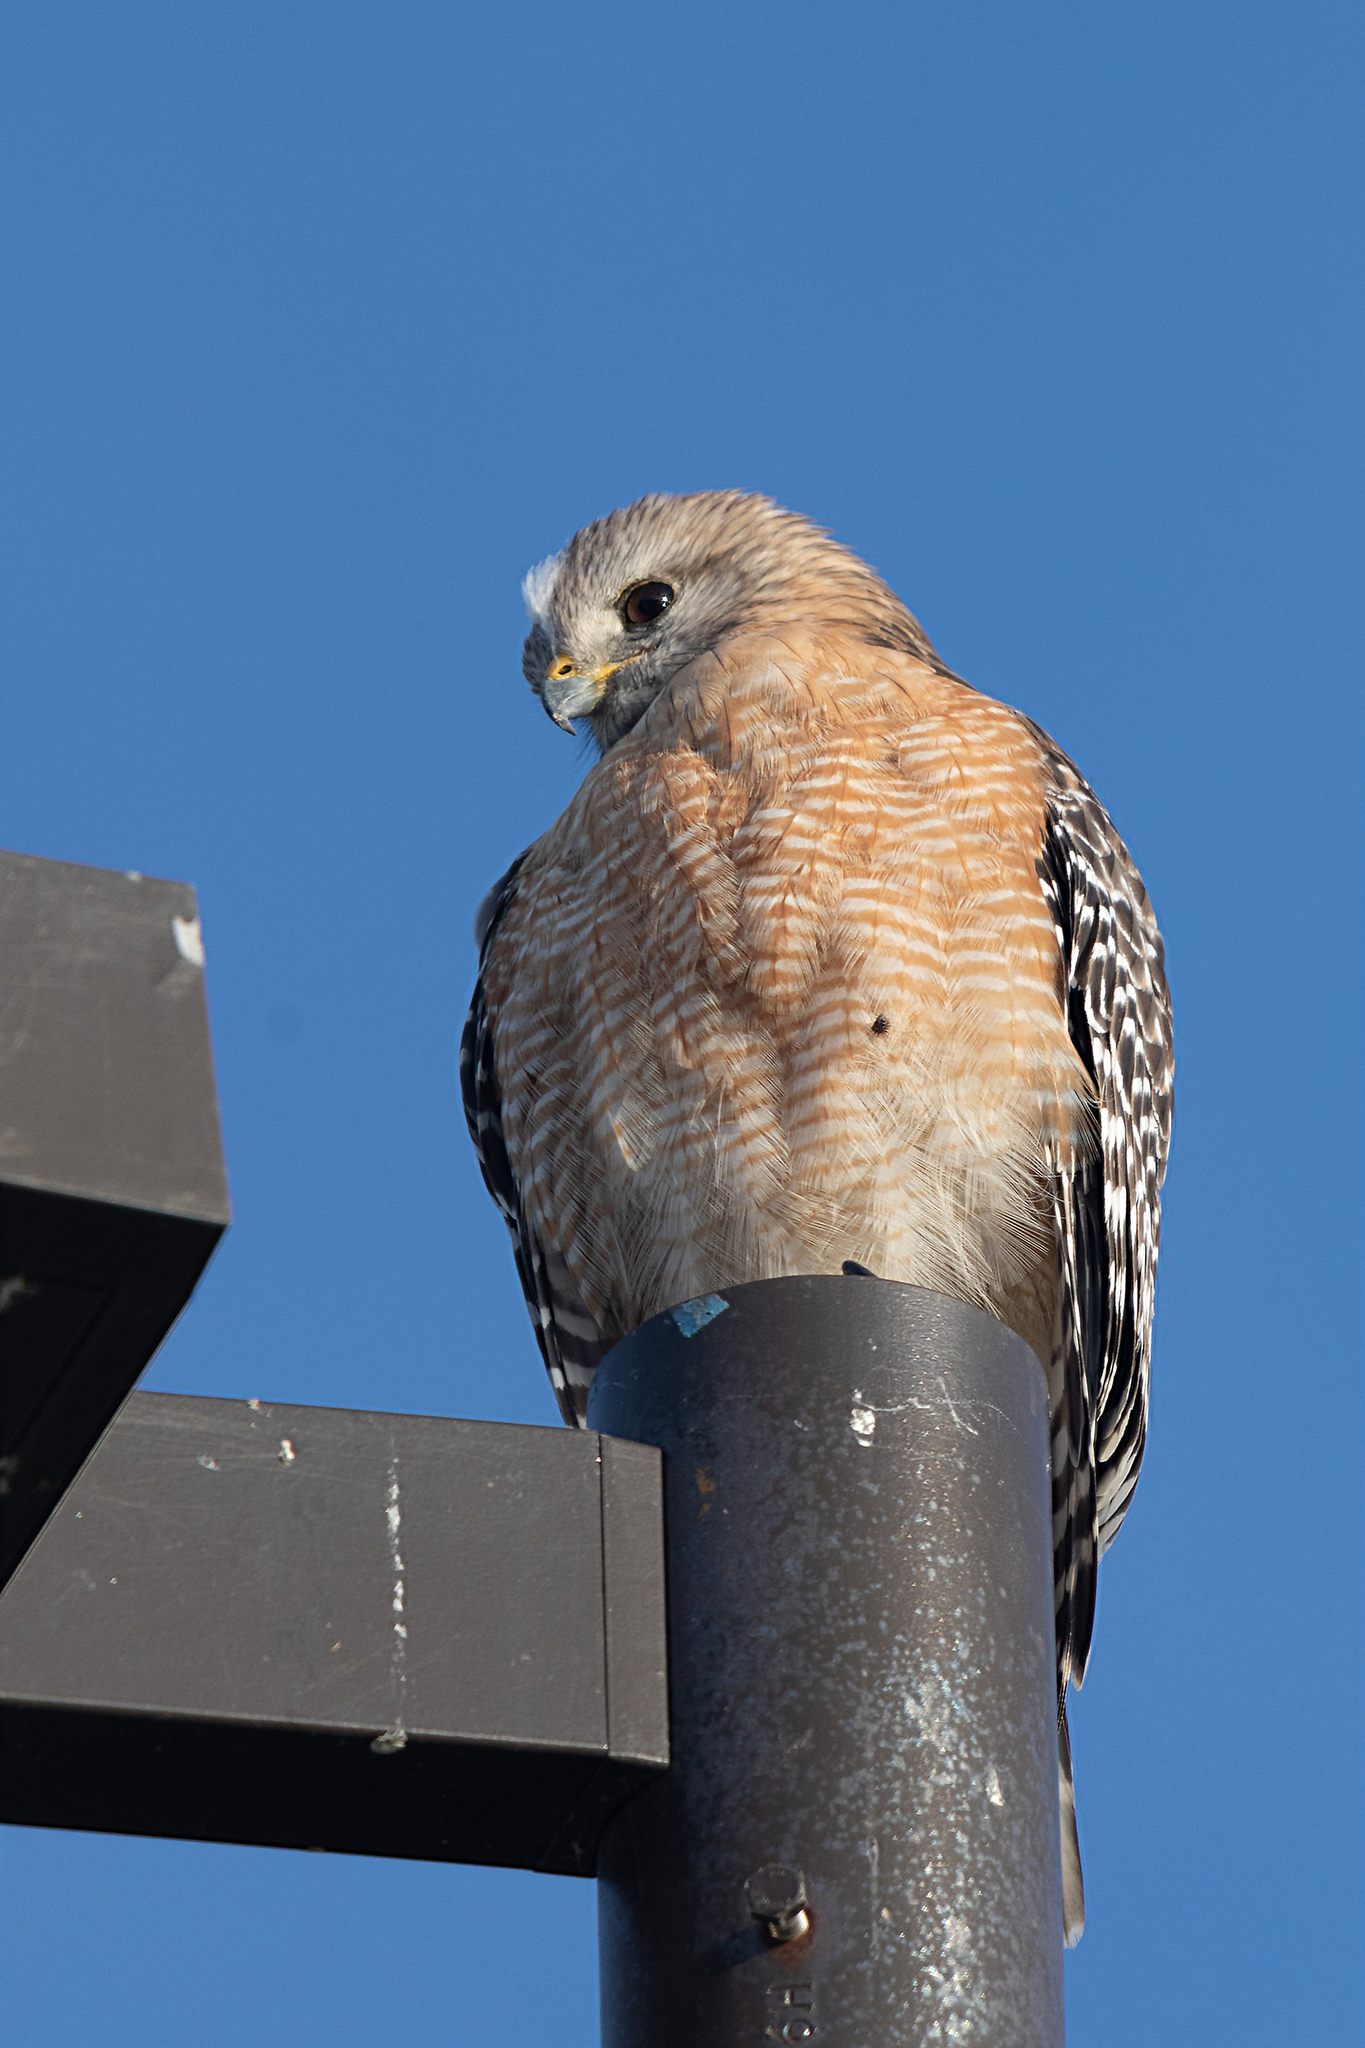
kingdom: Animalia
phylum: Chordata
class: Aves
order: Accipitriformes
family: Accipitridae
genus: Buteo
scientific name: Buteo lineatus
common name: Red-shouldered hawk
